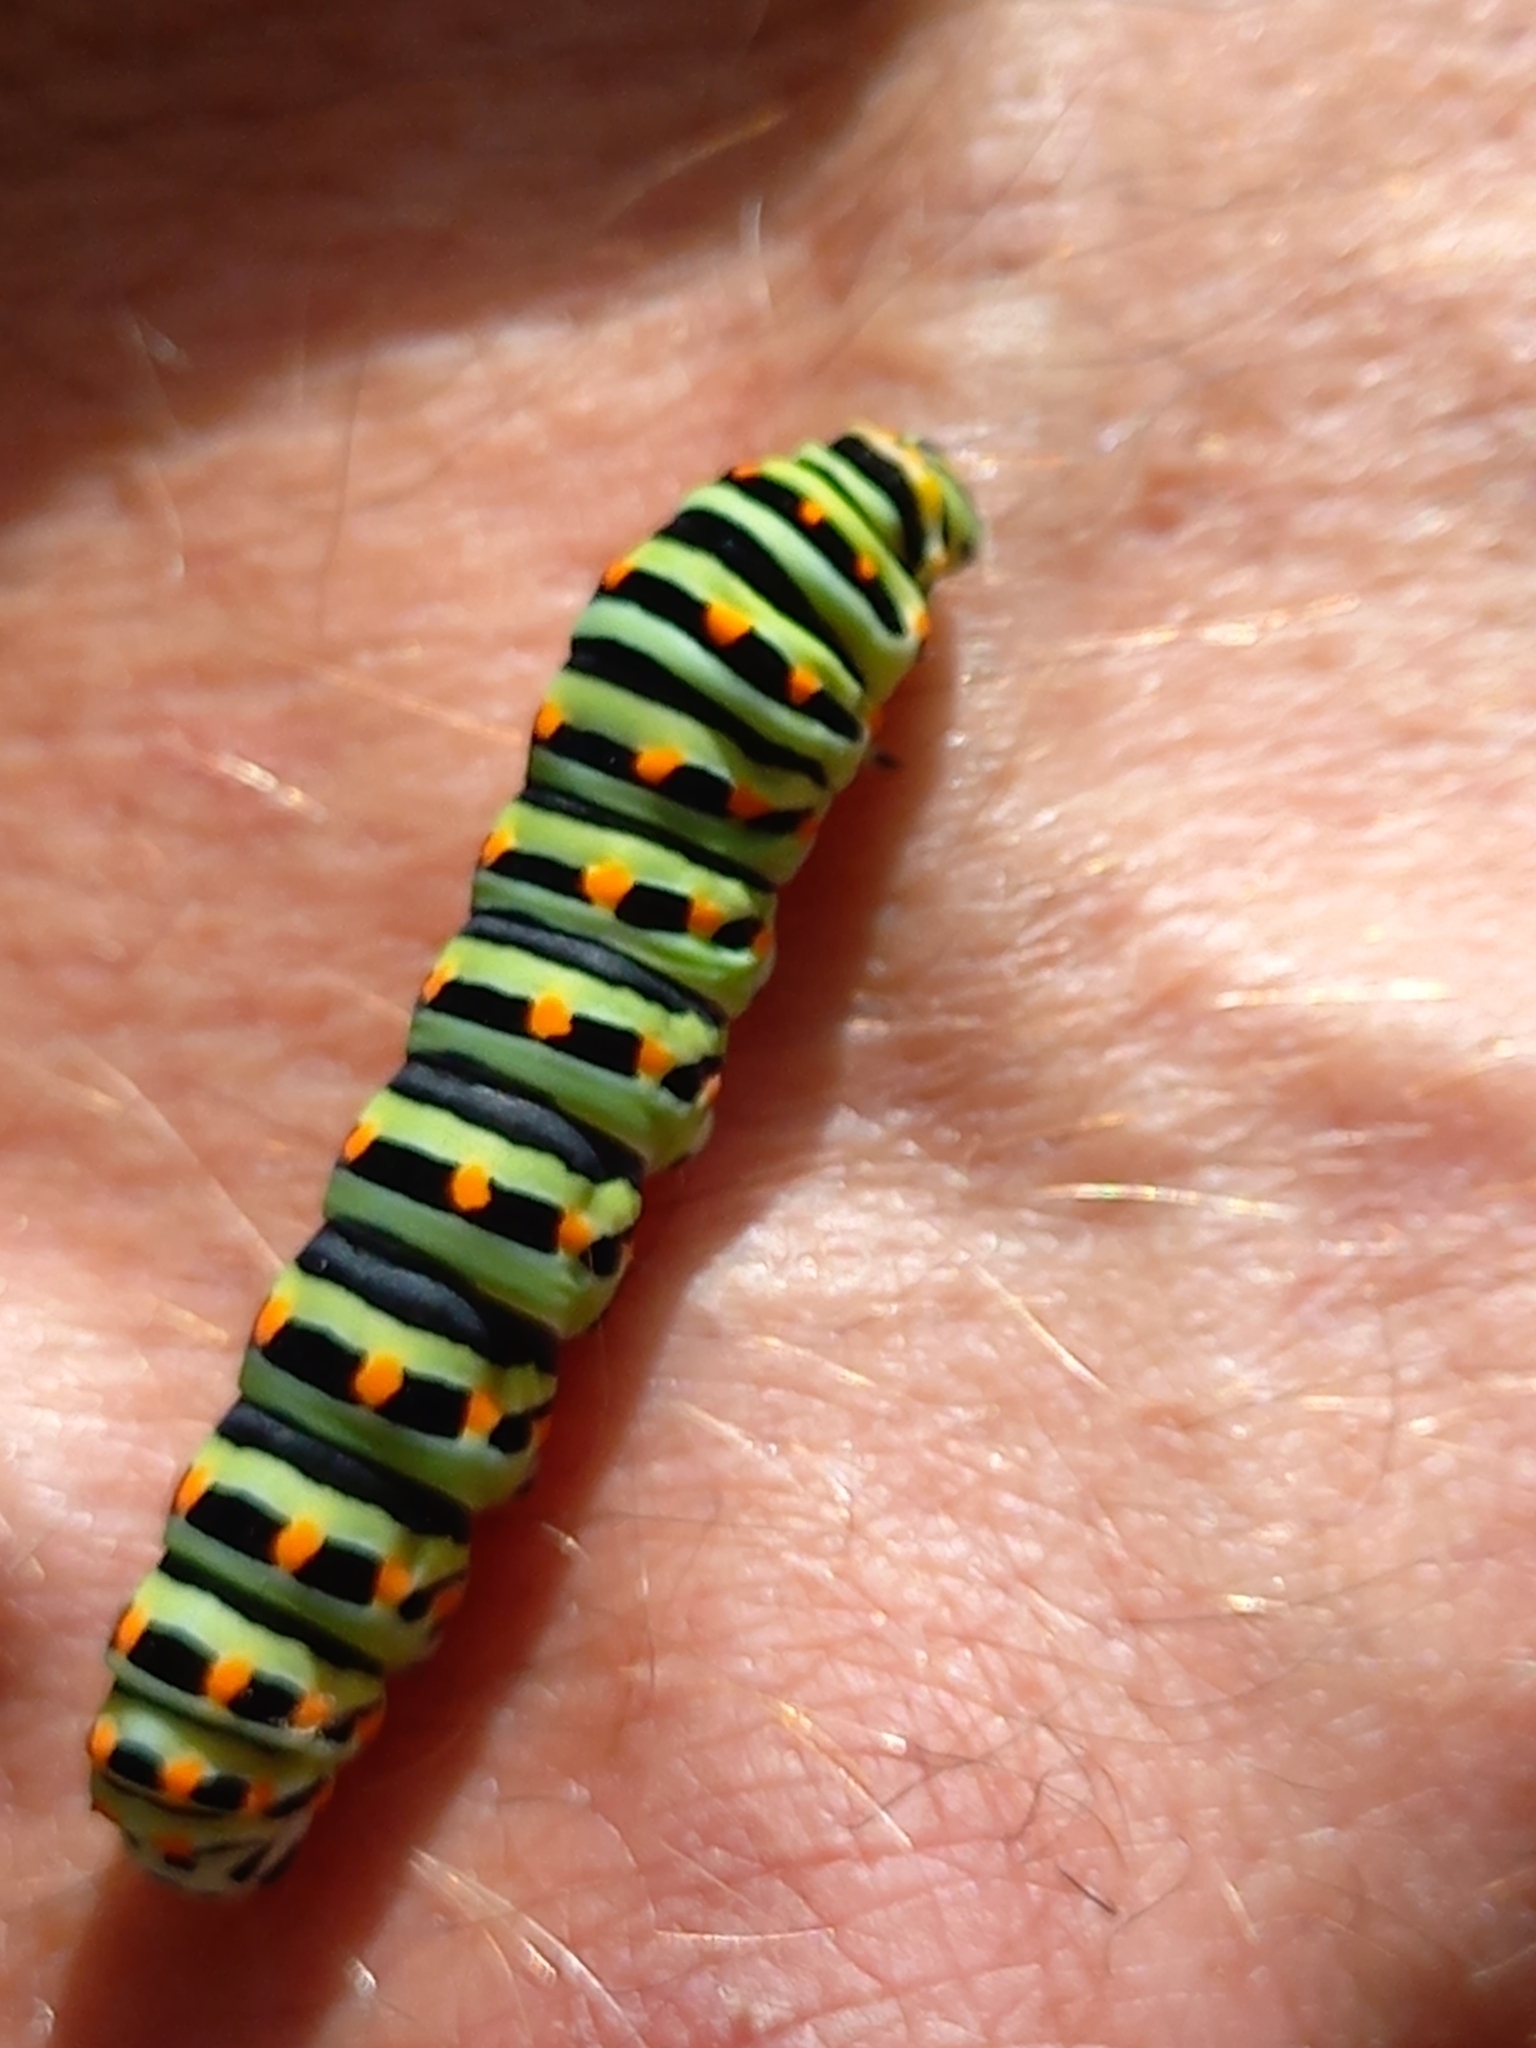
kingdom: Animalia
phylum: Arthropoda
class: Insecta
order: Lepidoptera
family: Papilionidae
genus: Papilio
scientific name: Papilio machaon
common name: Swallowtail
